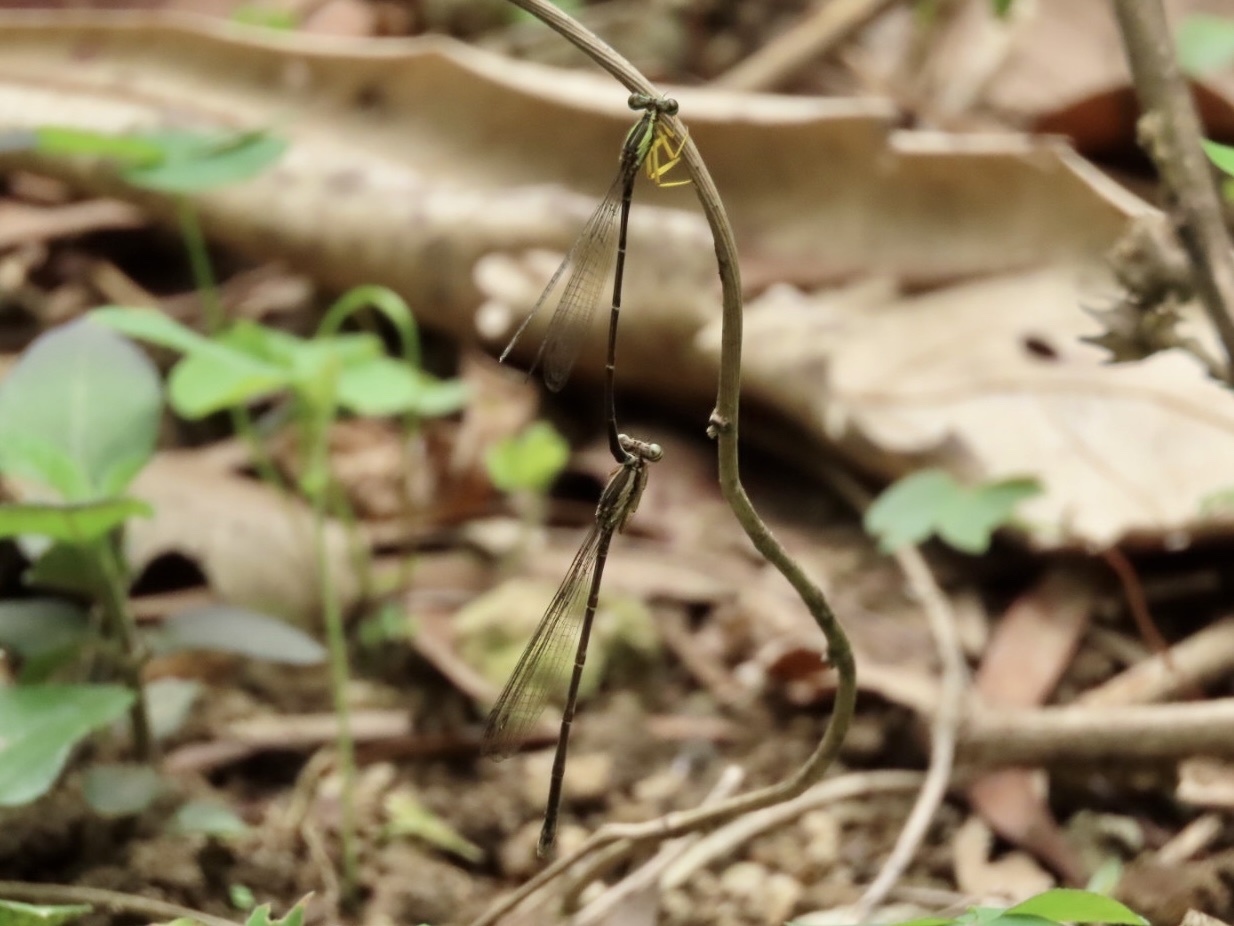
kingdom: Animalia
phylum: Arthropoda
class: Insecta
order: Odonata
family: Platycnemididae
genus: Copera
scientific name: Copera marginipes
